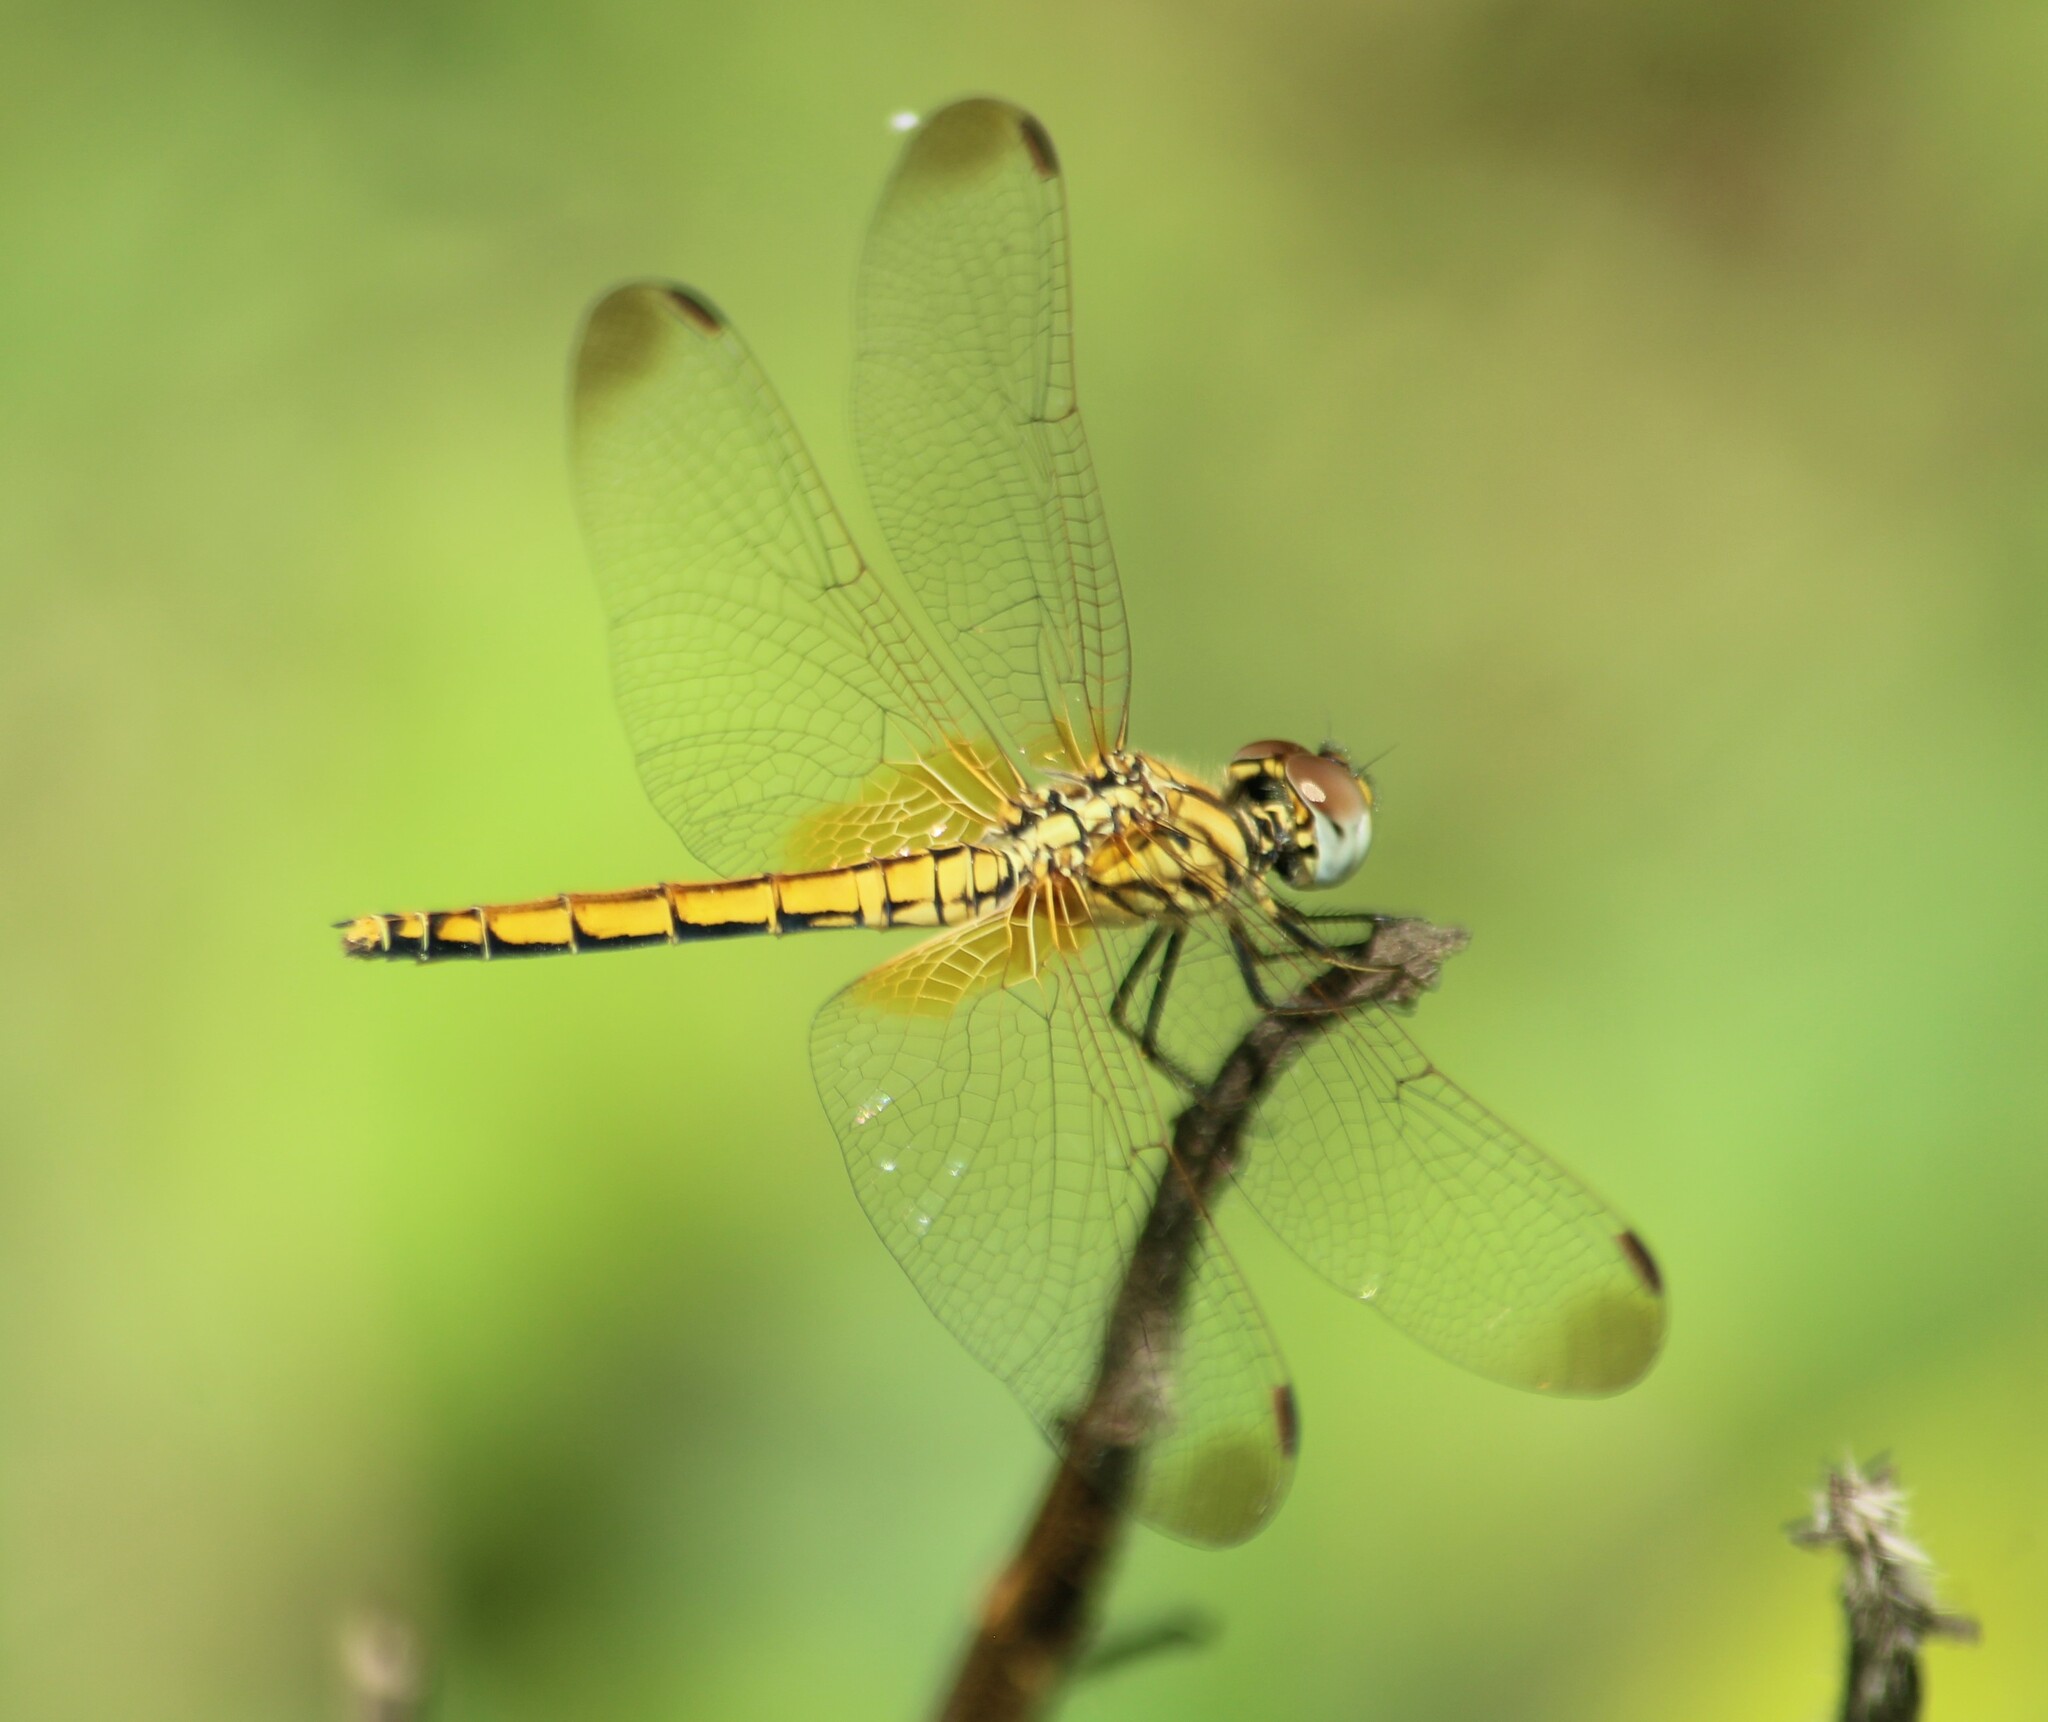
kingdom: Animalia
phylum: Arthropoda
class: Insecta
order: Odonata
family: Libellulidae
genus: Trithemis
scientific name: Trithemis aurora
